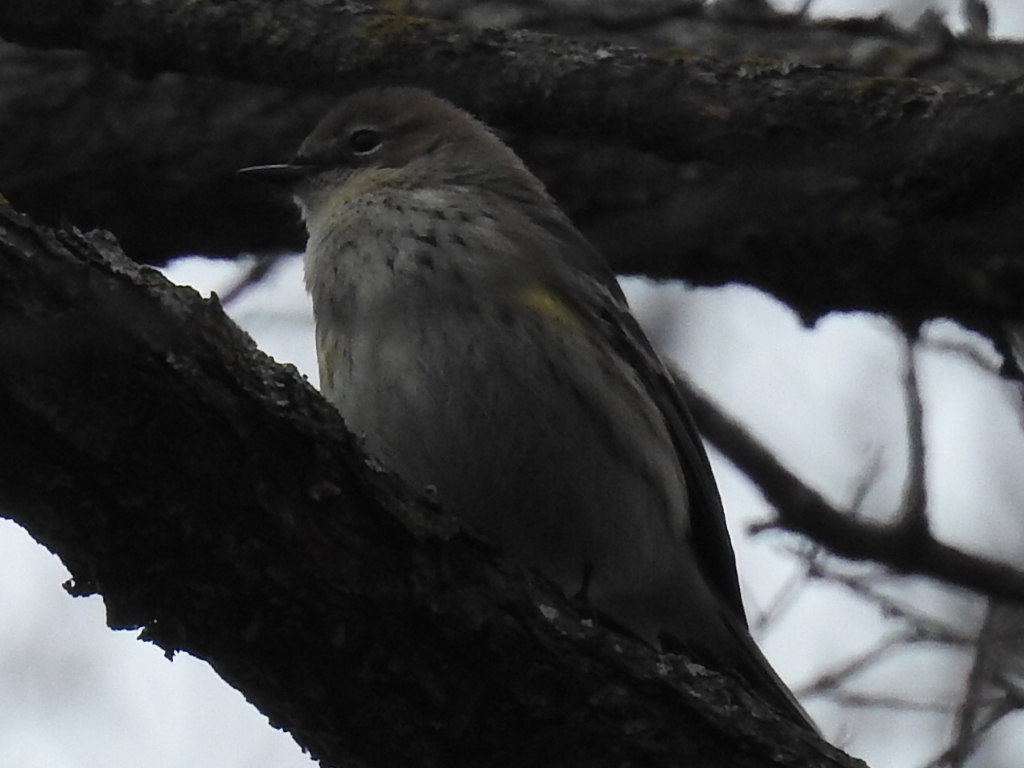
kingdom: Animalia
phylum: Chordata
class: Aves
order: Passeriformes
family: Parulidae
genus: Setophaga
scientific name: Setophaga coronata
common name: Myrtle warbler
